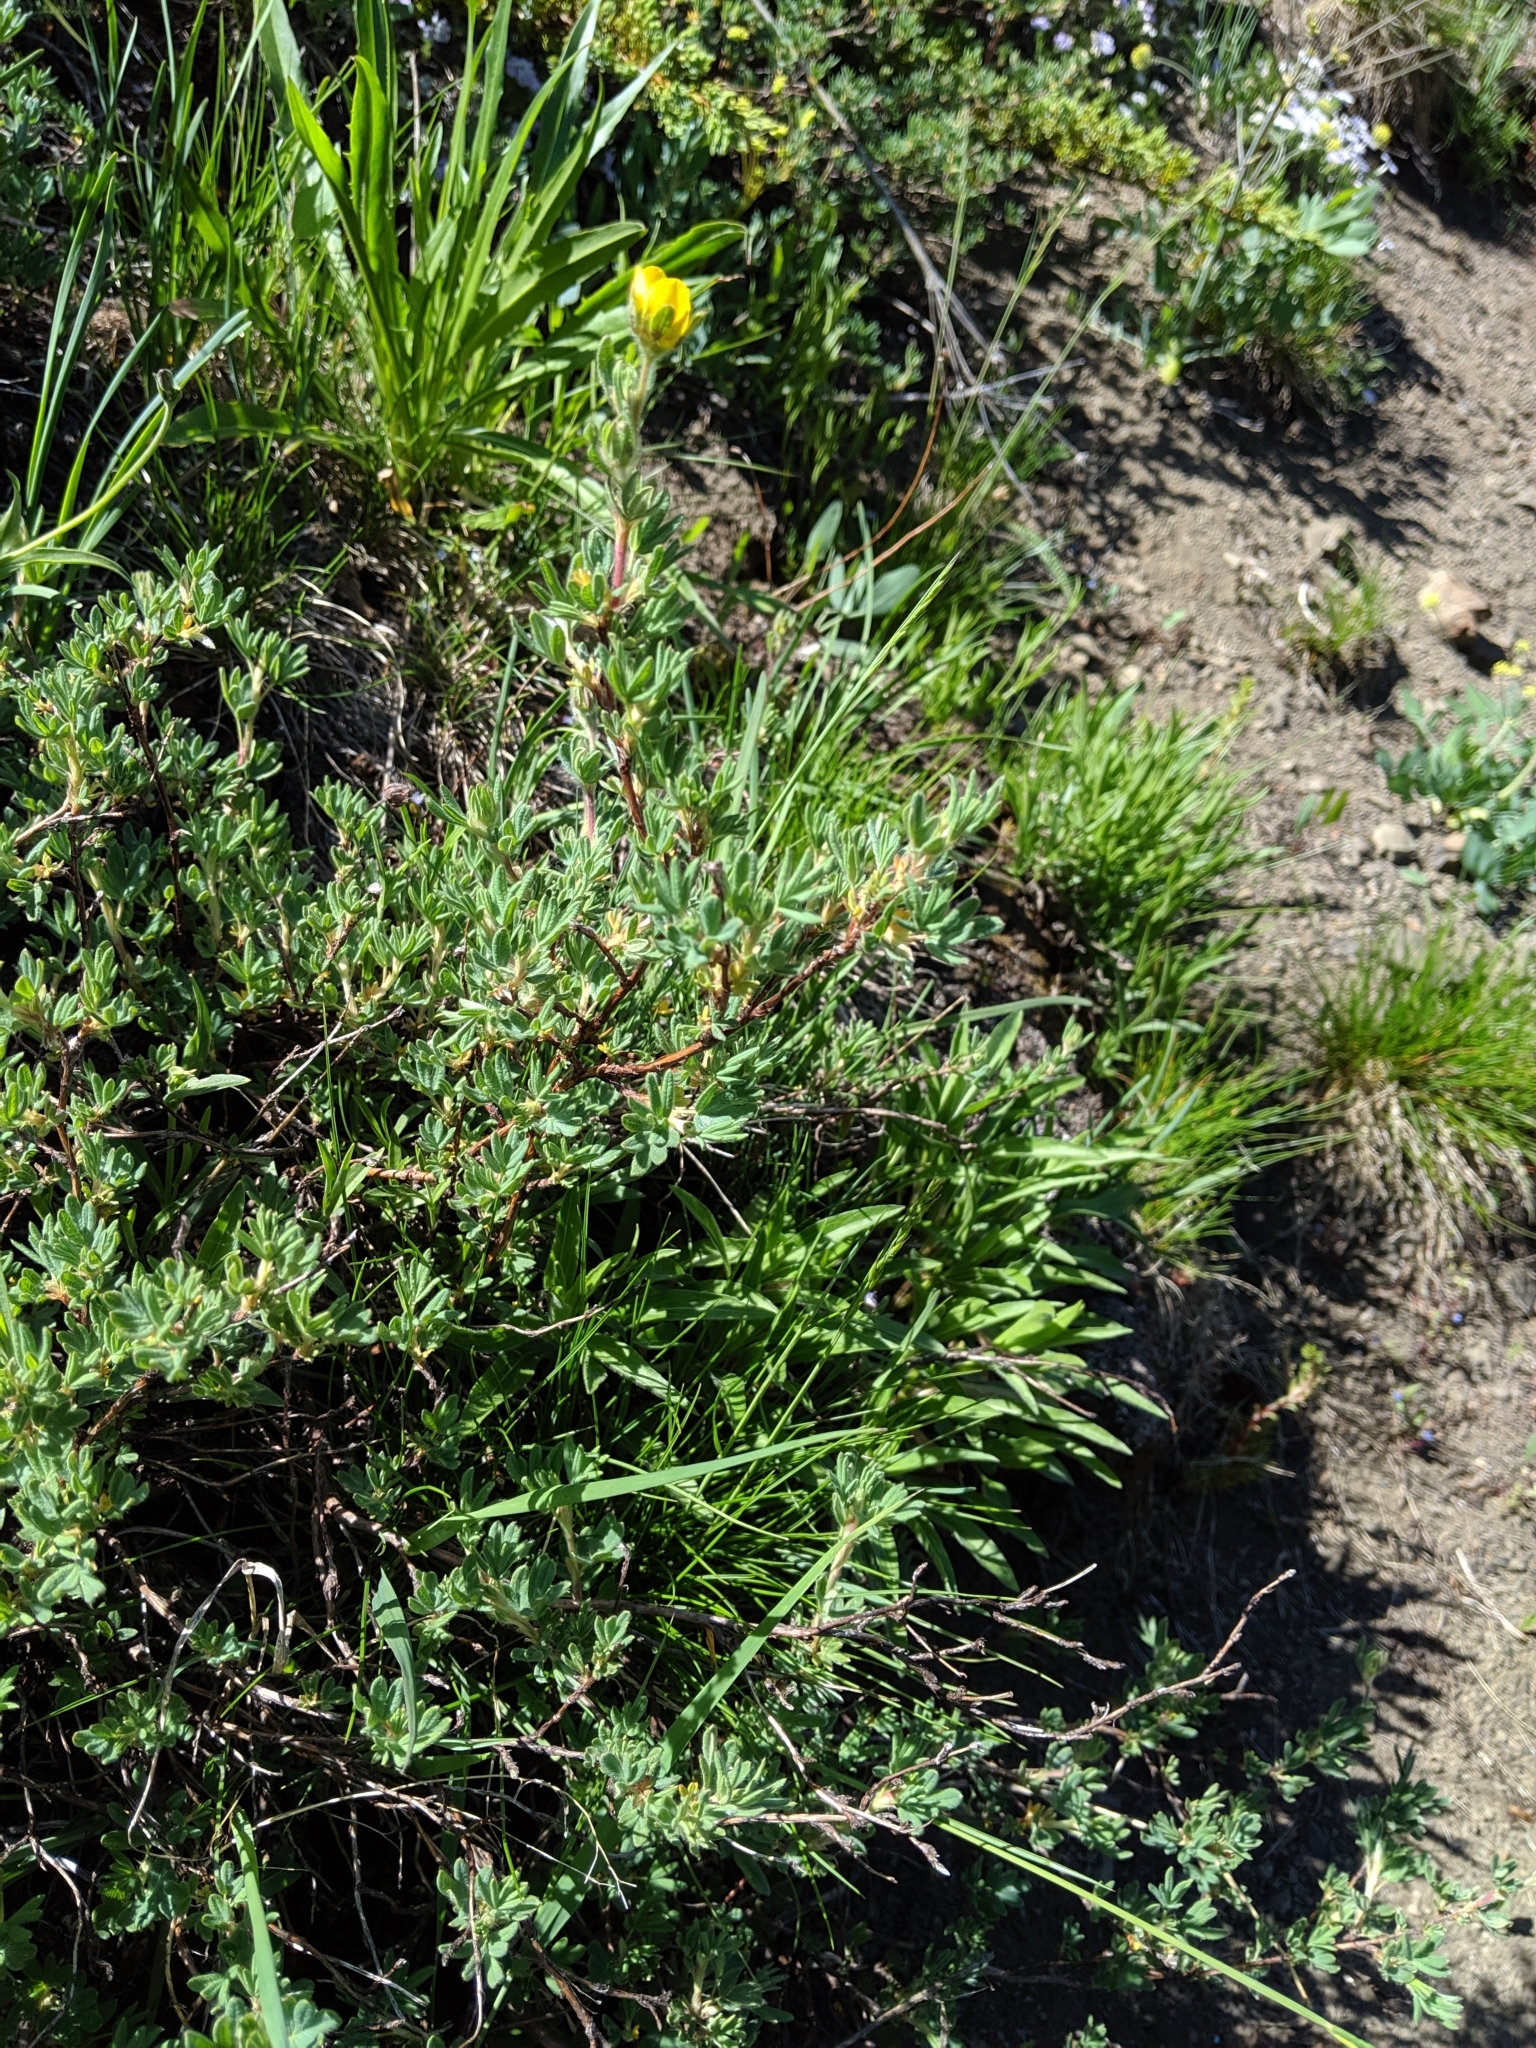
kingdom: Plantae
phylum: Tracheophyta
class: Magnoliopsida
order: Rosales
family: Rosaceae
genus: Dasiphora
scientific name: Dasiphora fruticosa
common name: Shrubby cinquefoil
